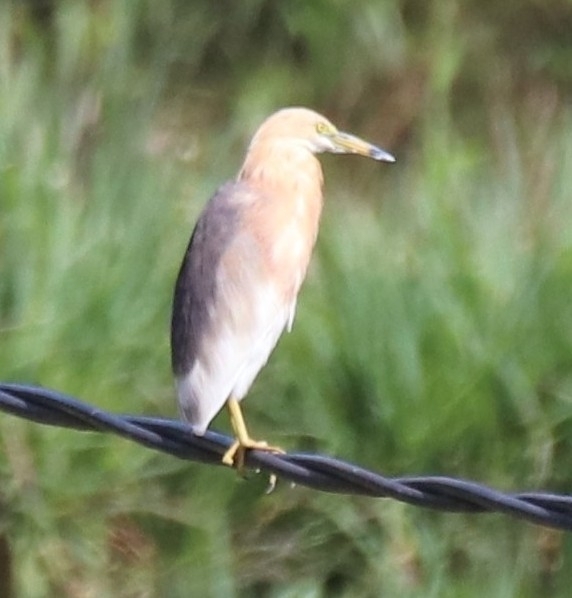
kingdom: Animalia
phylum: Chordata
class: Aves
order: Pelecaniformes
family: Ardeidae
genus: Ardeola
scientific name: Ardeola speciosa
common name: Javan pond heron
